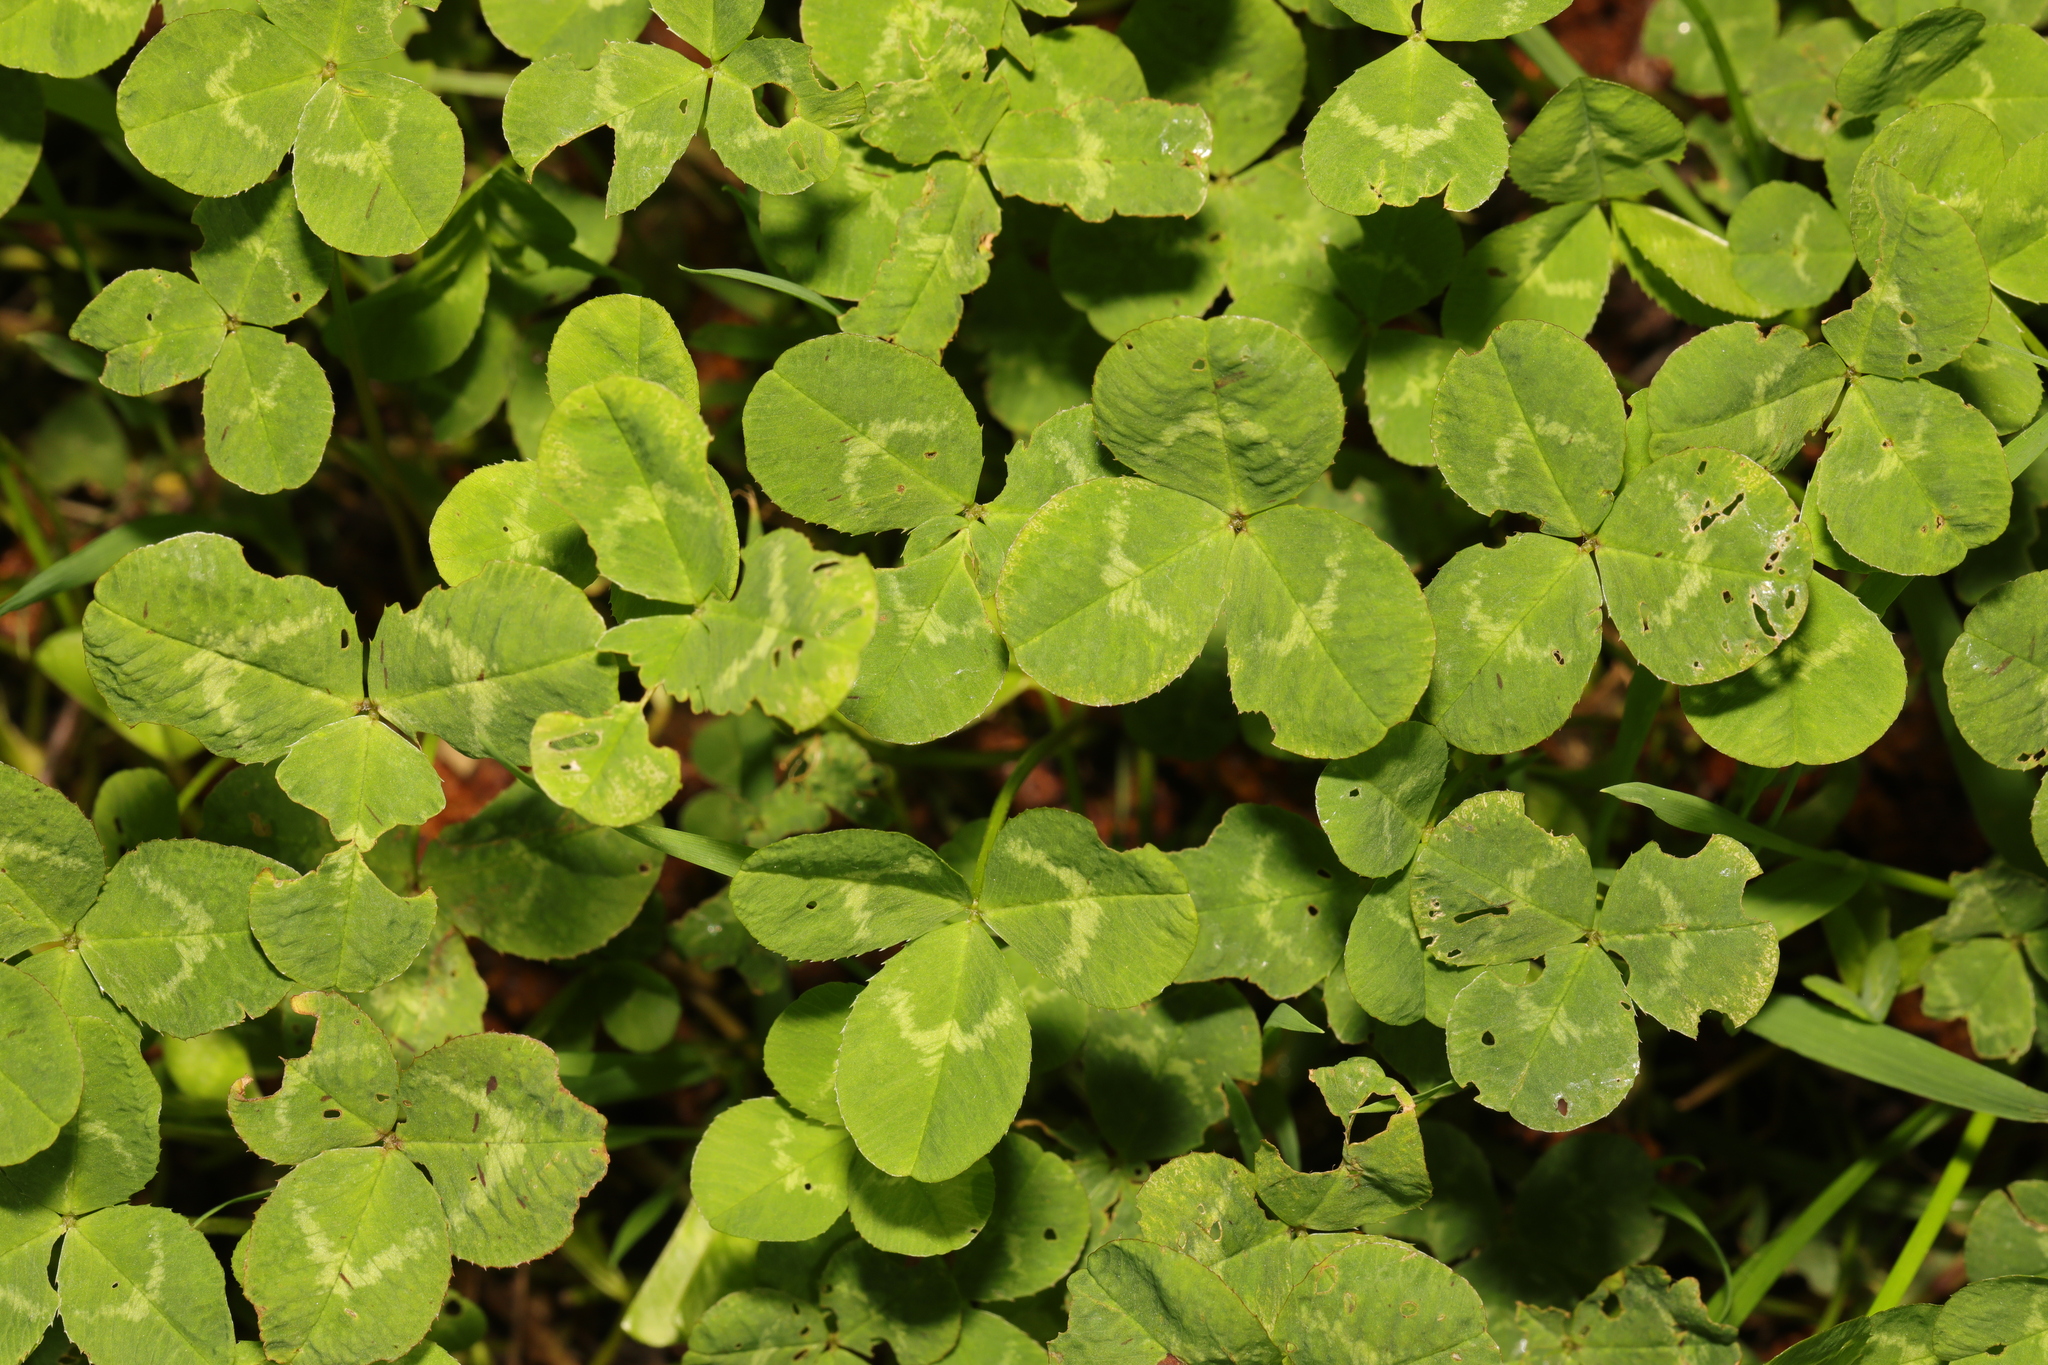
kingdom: Plantae
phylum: Tracheophyta
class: Magnoliopsida
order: Fabales
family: Fabaceae
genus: Trifolium
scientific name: Trifolium repens
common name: White clover
